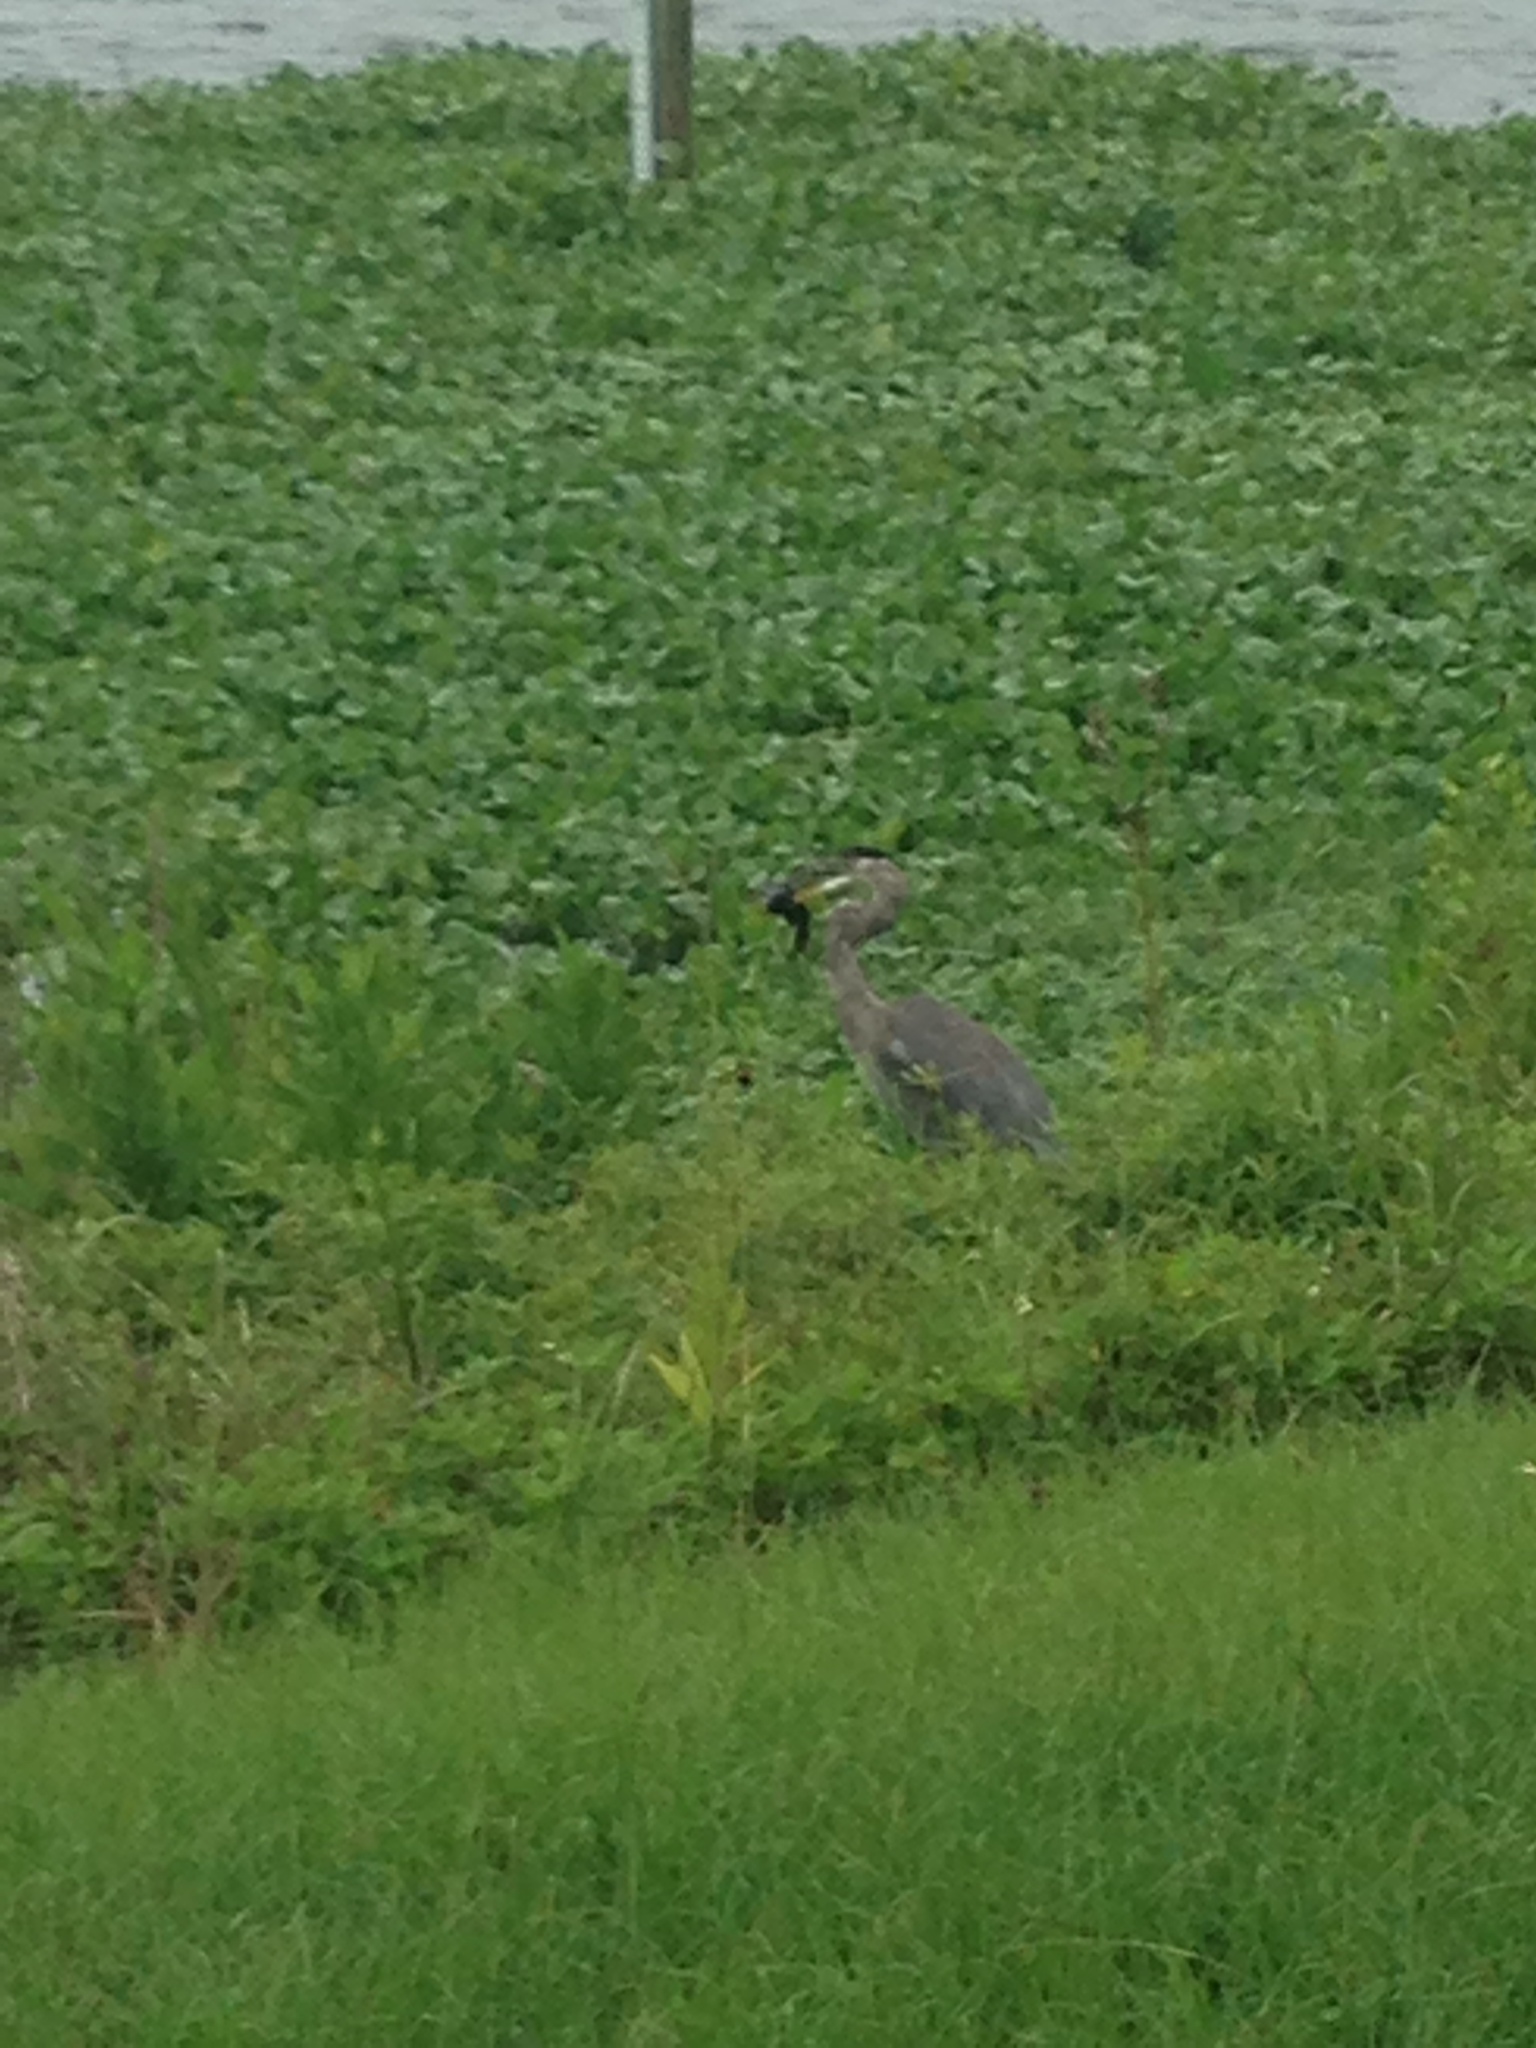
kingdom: Animalia
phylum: Chordata
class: Aves
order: Pelecaniformes
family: Ardeidae
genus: Ardea
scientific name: Ardea herodias
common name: Great blue heron
